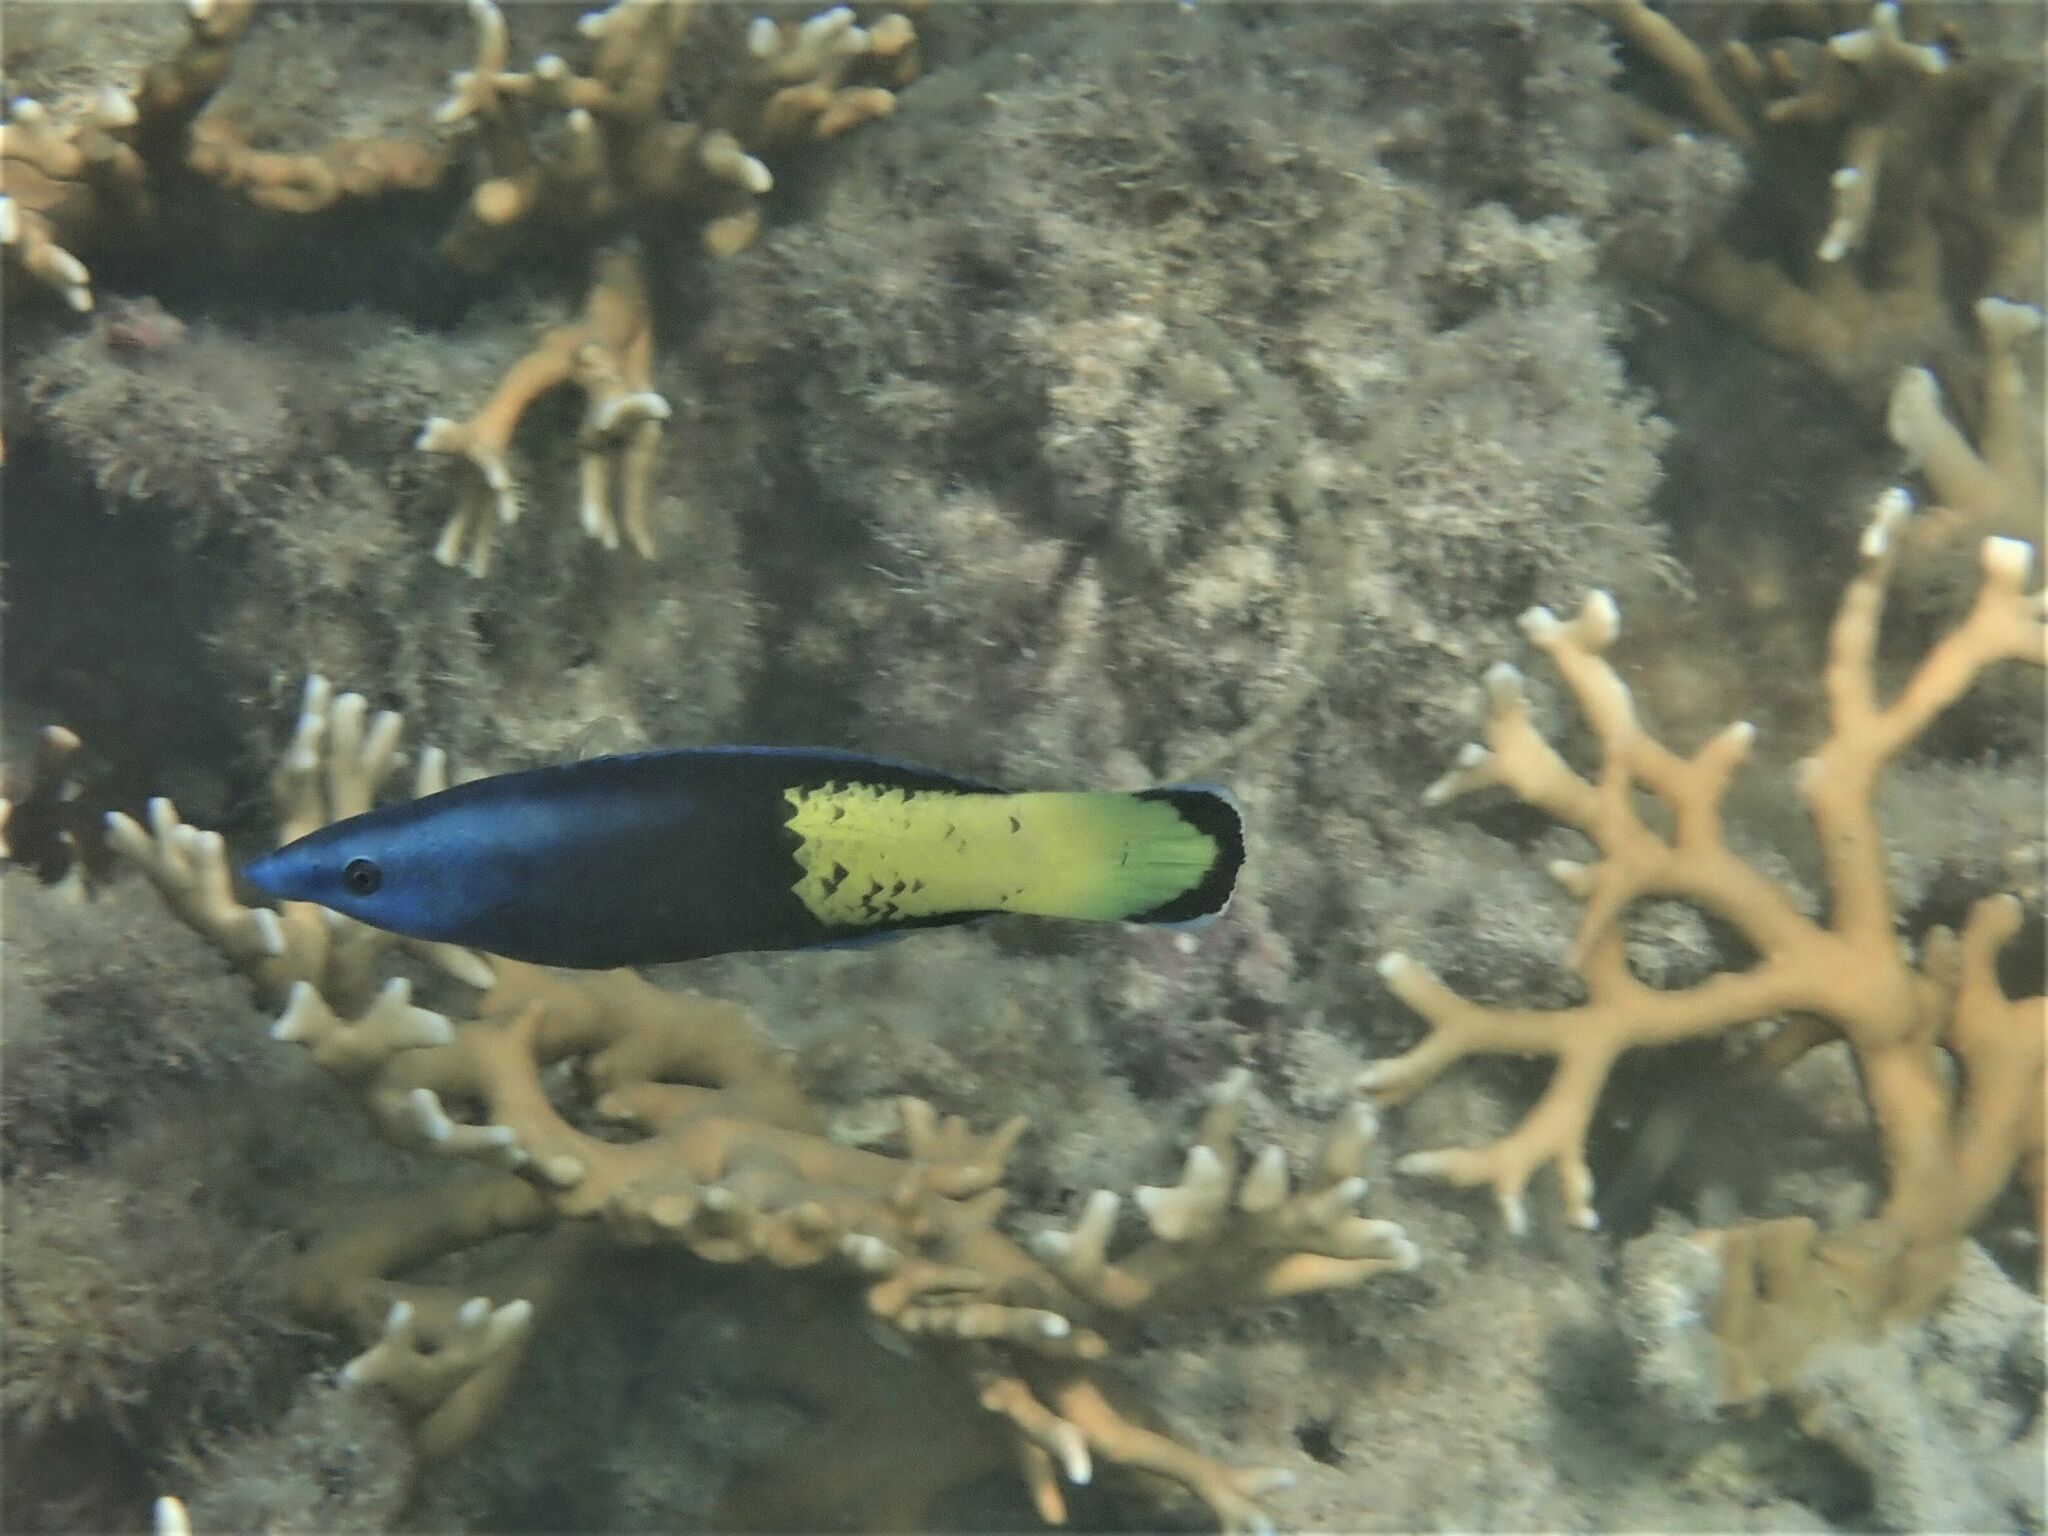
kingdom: Animalia
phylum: Chordata
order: Perciformes
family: Labridae
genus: Labroides
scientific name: Labroides bicolor
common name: Bicolor cleaner wrasse
